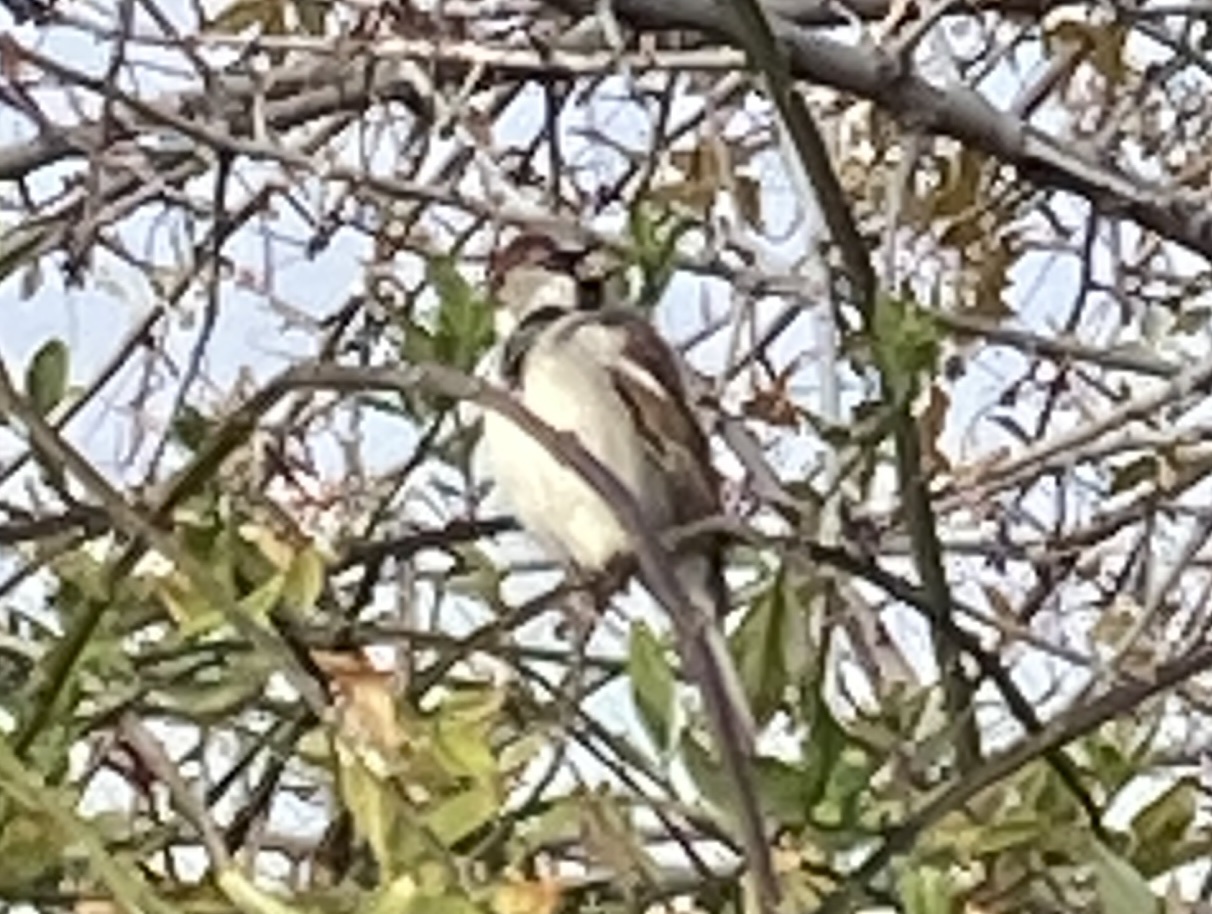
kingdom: Animalia
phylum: Chordata
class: Aves
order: Passeriformes
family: Passeridae
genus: Passer
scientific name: Passer domesticus
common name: House sparrow
